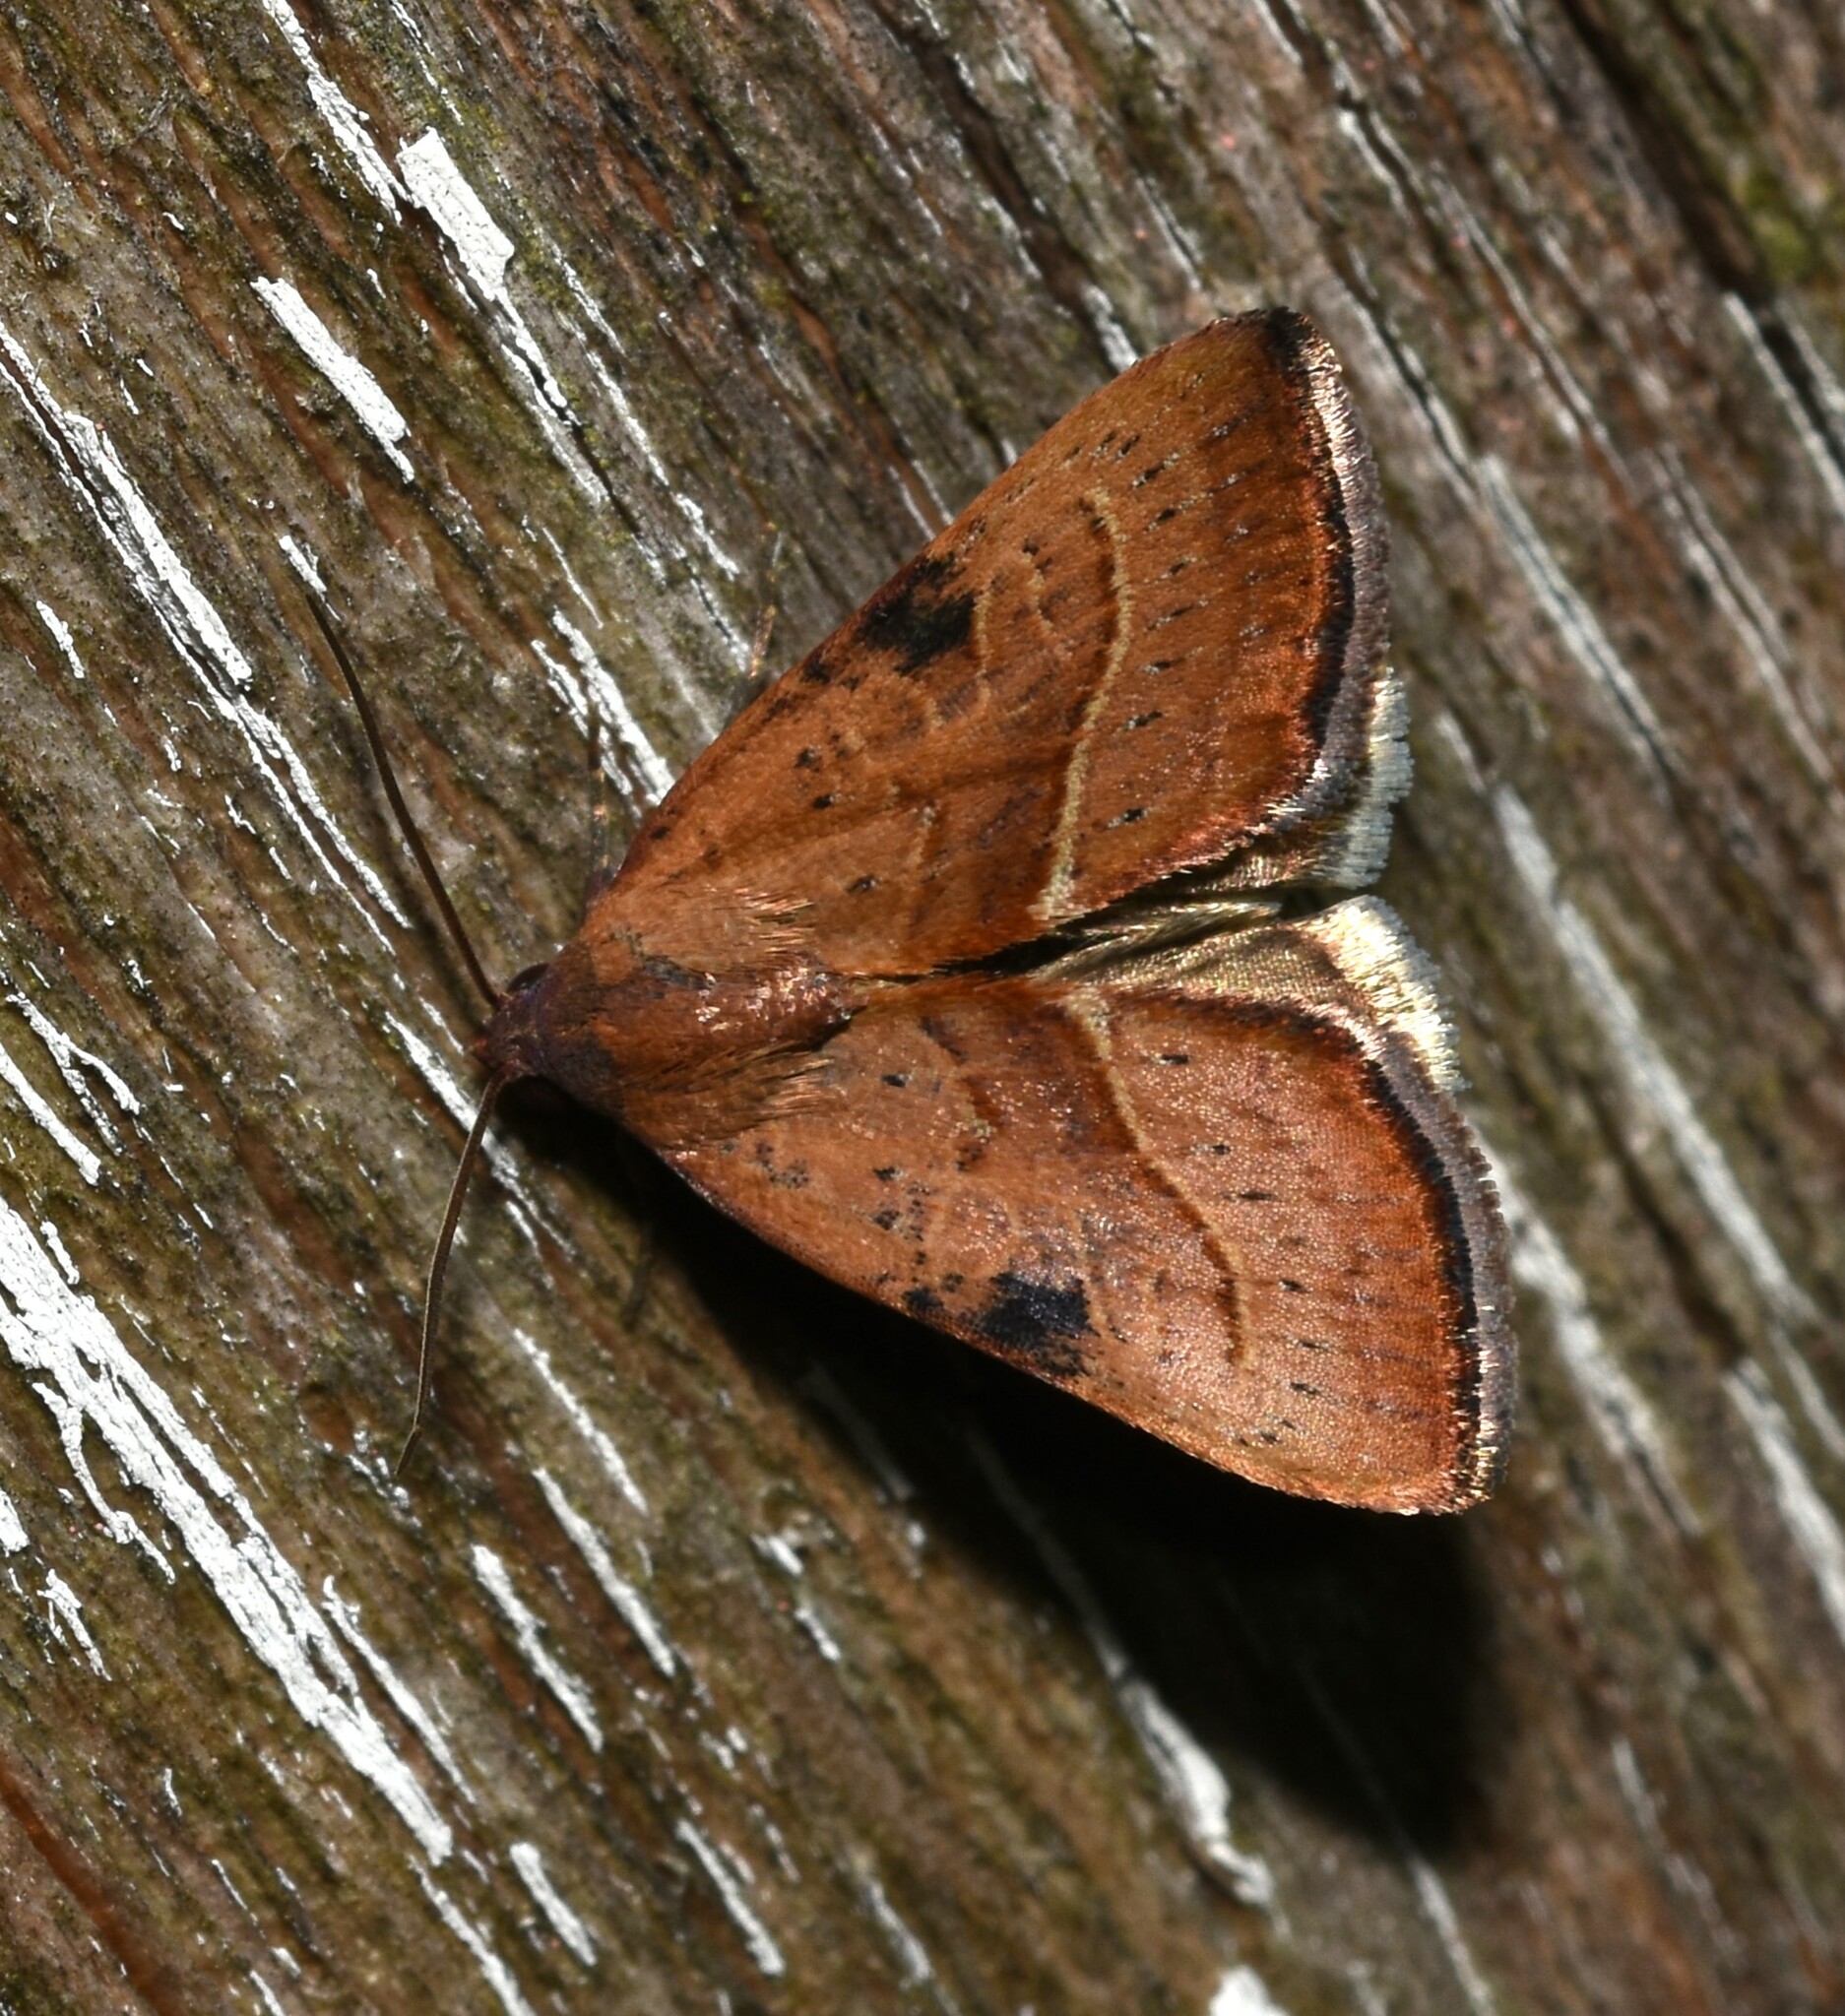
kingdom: Animalia
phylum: Arthropoda
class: Insecta
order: Lepidoptera
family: Noctuidae
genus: Galgula
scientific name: Galgula partita
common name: Wedgeling
